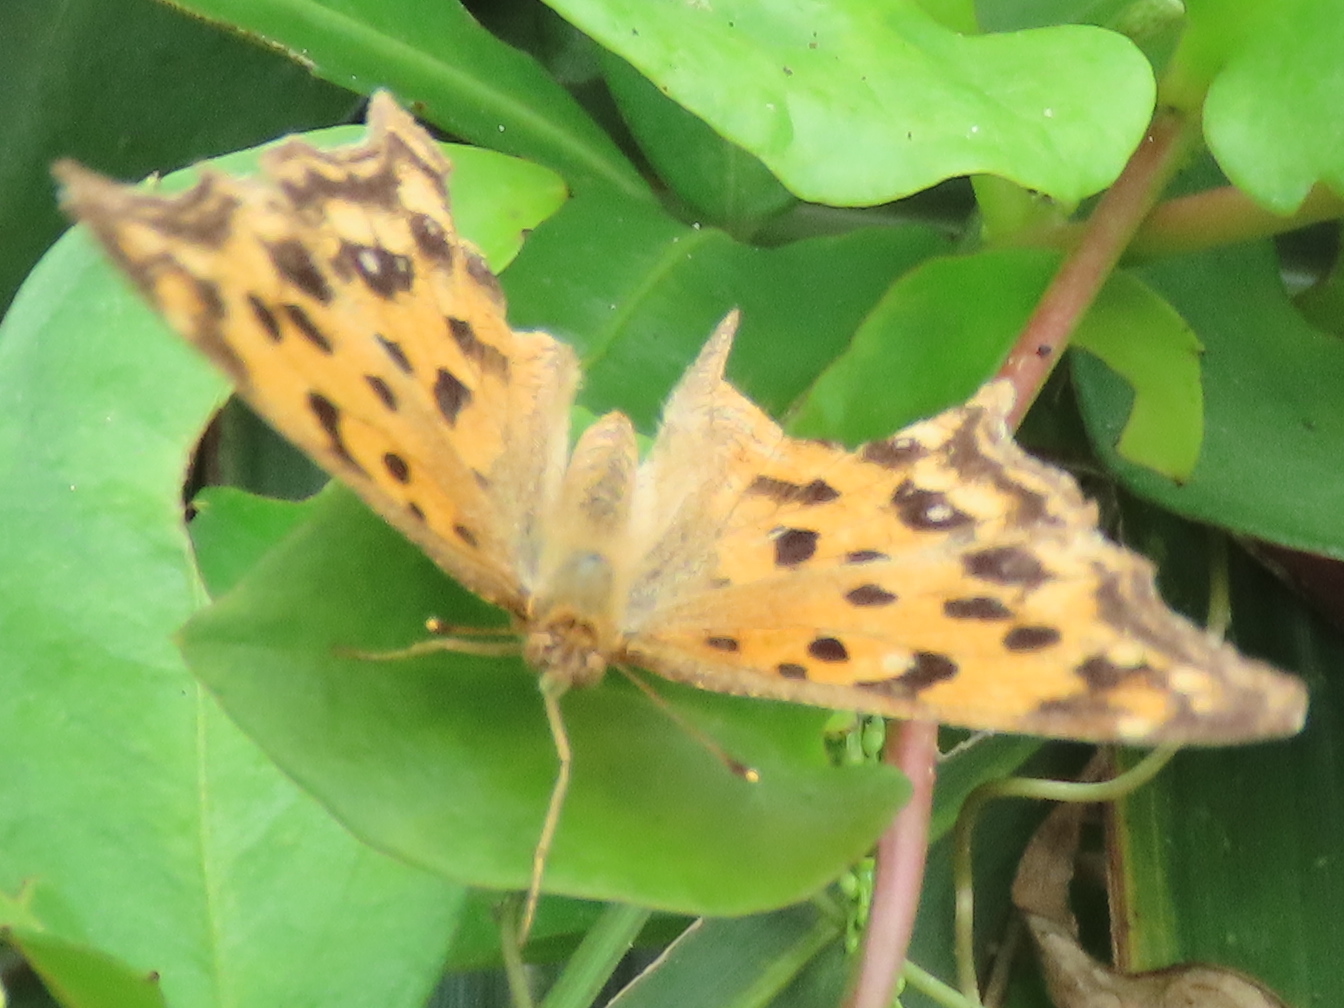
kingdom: Animalia
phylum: Arthropoda
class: Insecta
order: Lepidoptera
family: Nymphalidae
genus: Polygonia
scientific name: Polygonia c-aureum
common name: Asian comma
